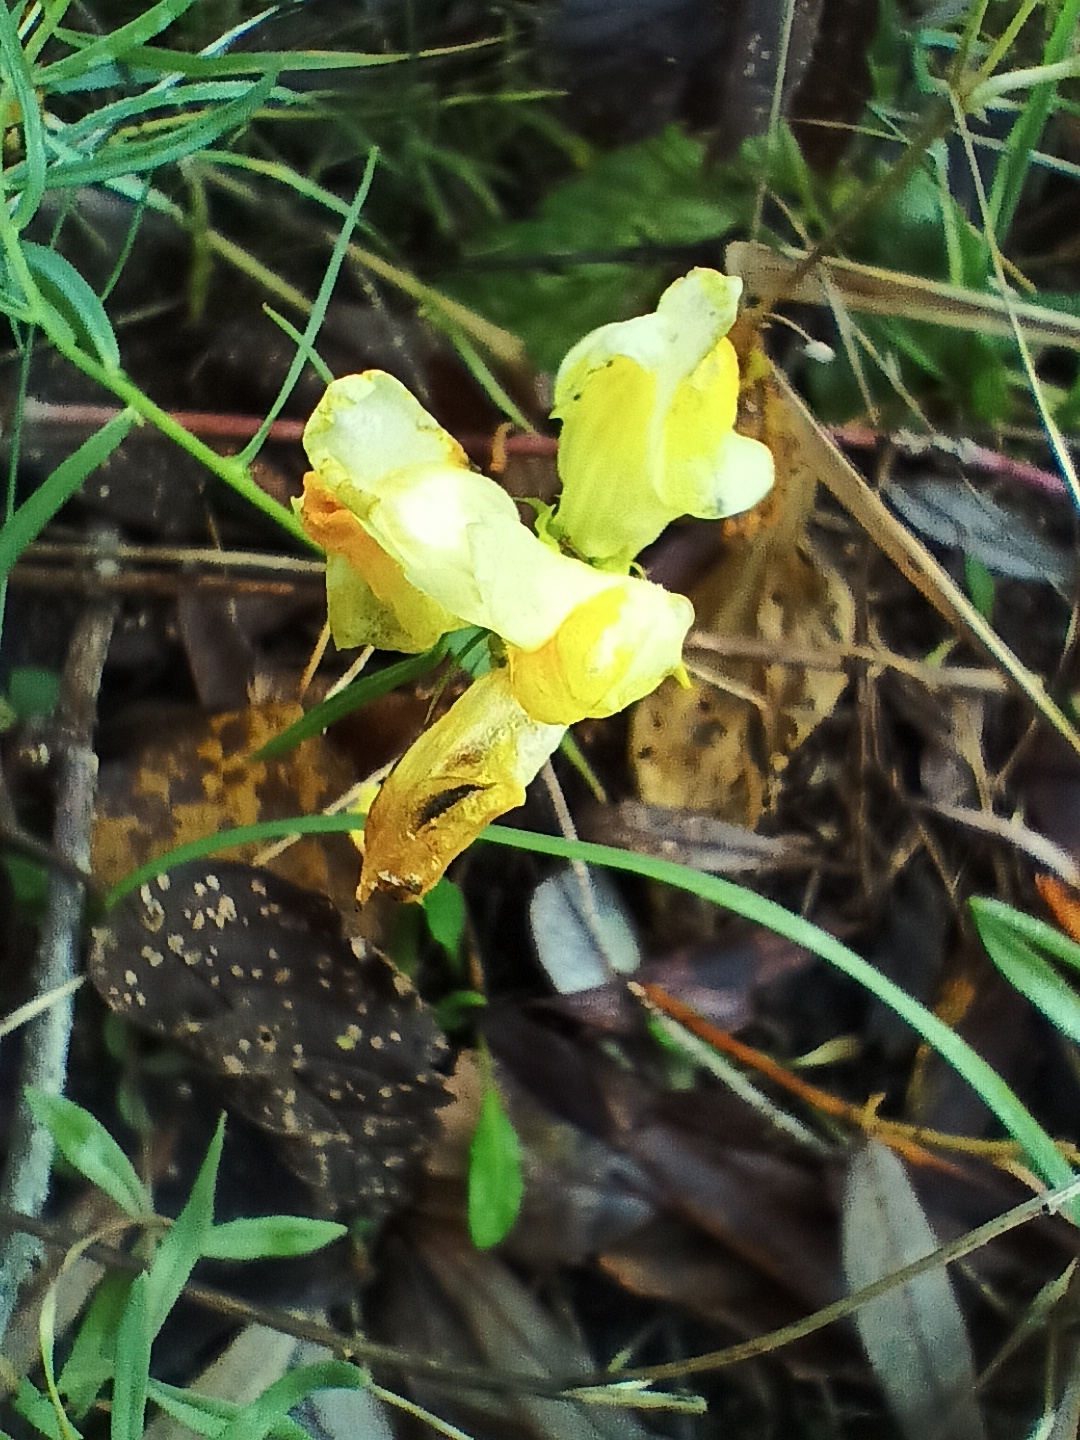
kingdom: Plantae
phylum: Tracheophyta
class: Magnoliopsida
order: Lamiales
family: Plantaginaceae
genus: Linaria
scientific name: Linaria vulgaris
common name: Butter and eggs
